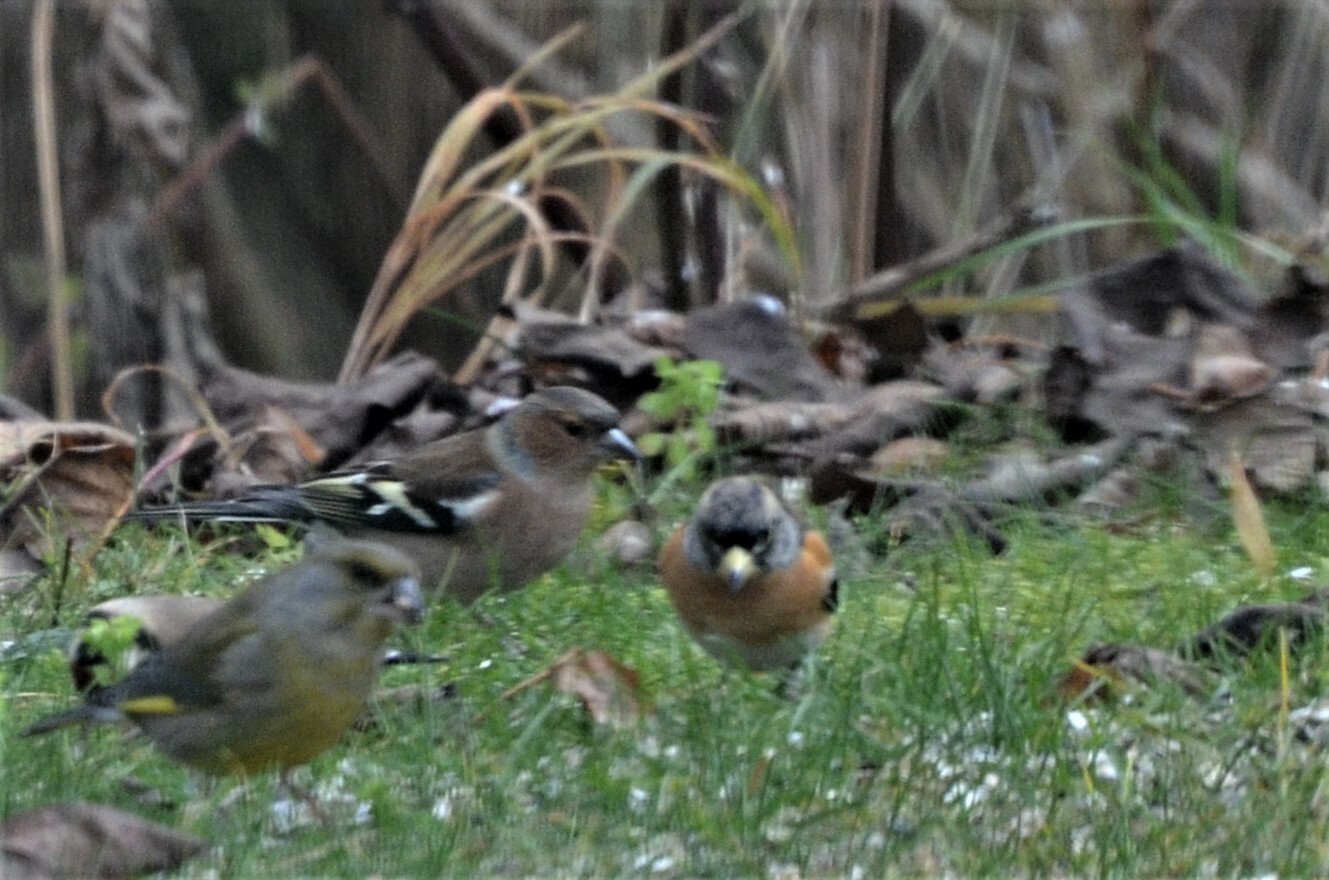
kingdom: Animalia
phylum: Chordata
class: Aves
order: Passeriformes
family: Fringillidae
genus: Fringilla
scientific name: Fringilla montifringilla
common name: Brambling
